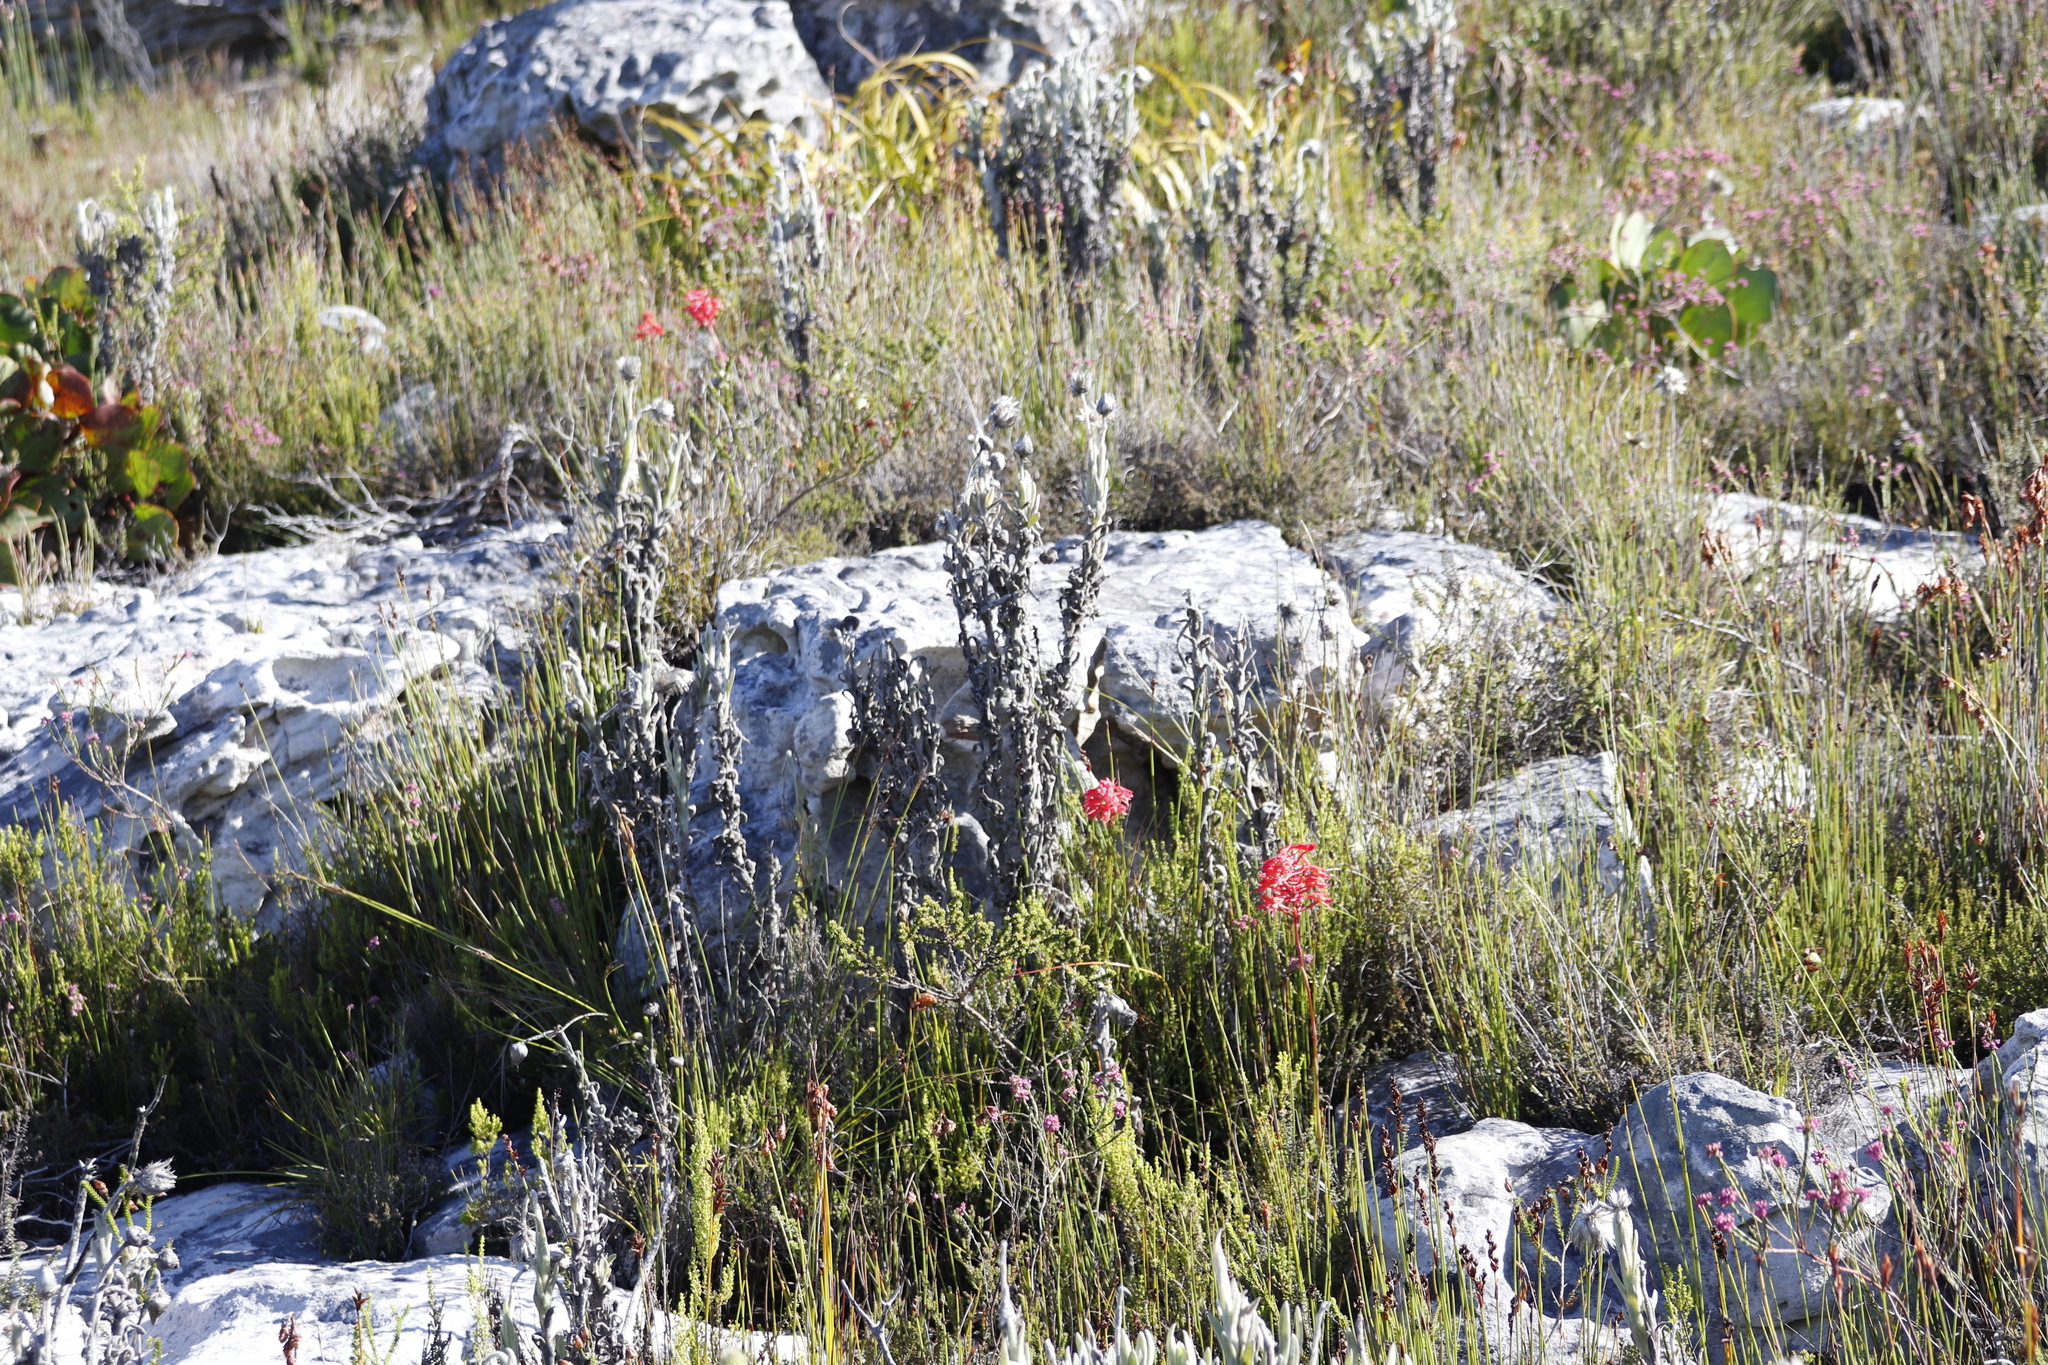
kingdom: Plantae
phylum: Tracheophyta
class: Magnoliopsida
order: Asterales
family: Asteraceae
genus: Syncarpha
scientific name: Syncarpha vestita
